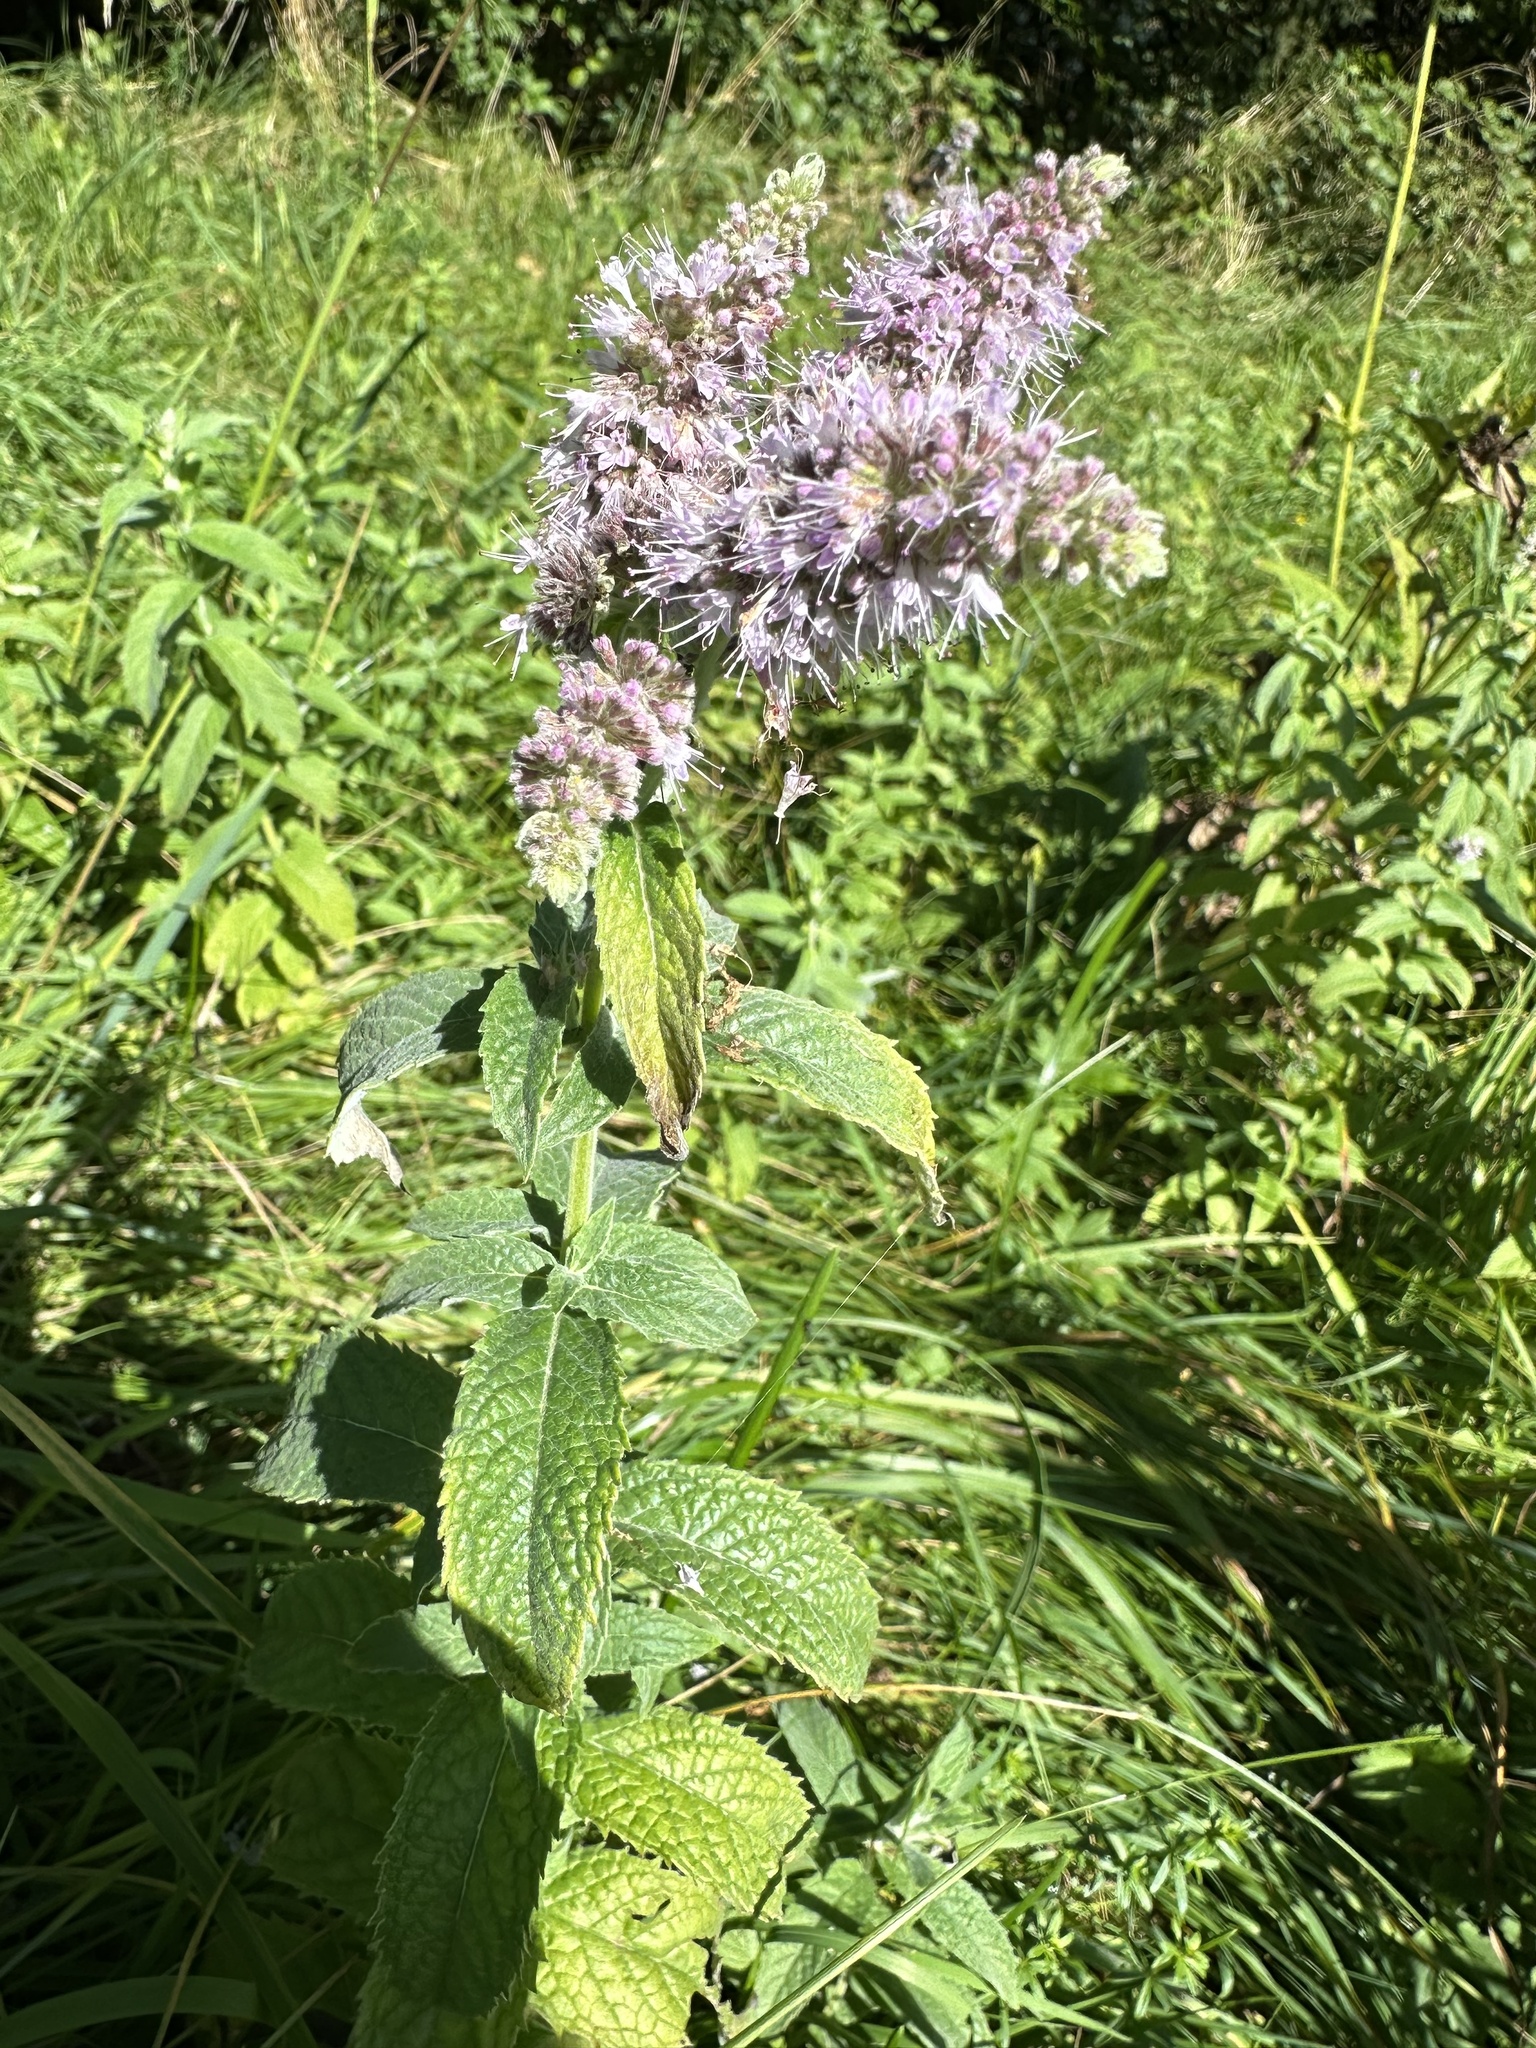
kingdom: Plantae
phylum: Tracheophyta
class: Magnoliopsida
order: Lamiales
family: Lamiaceae
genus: Mentha
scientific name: Mentha longifolia
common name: Horse mint
